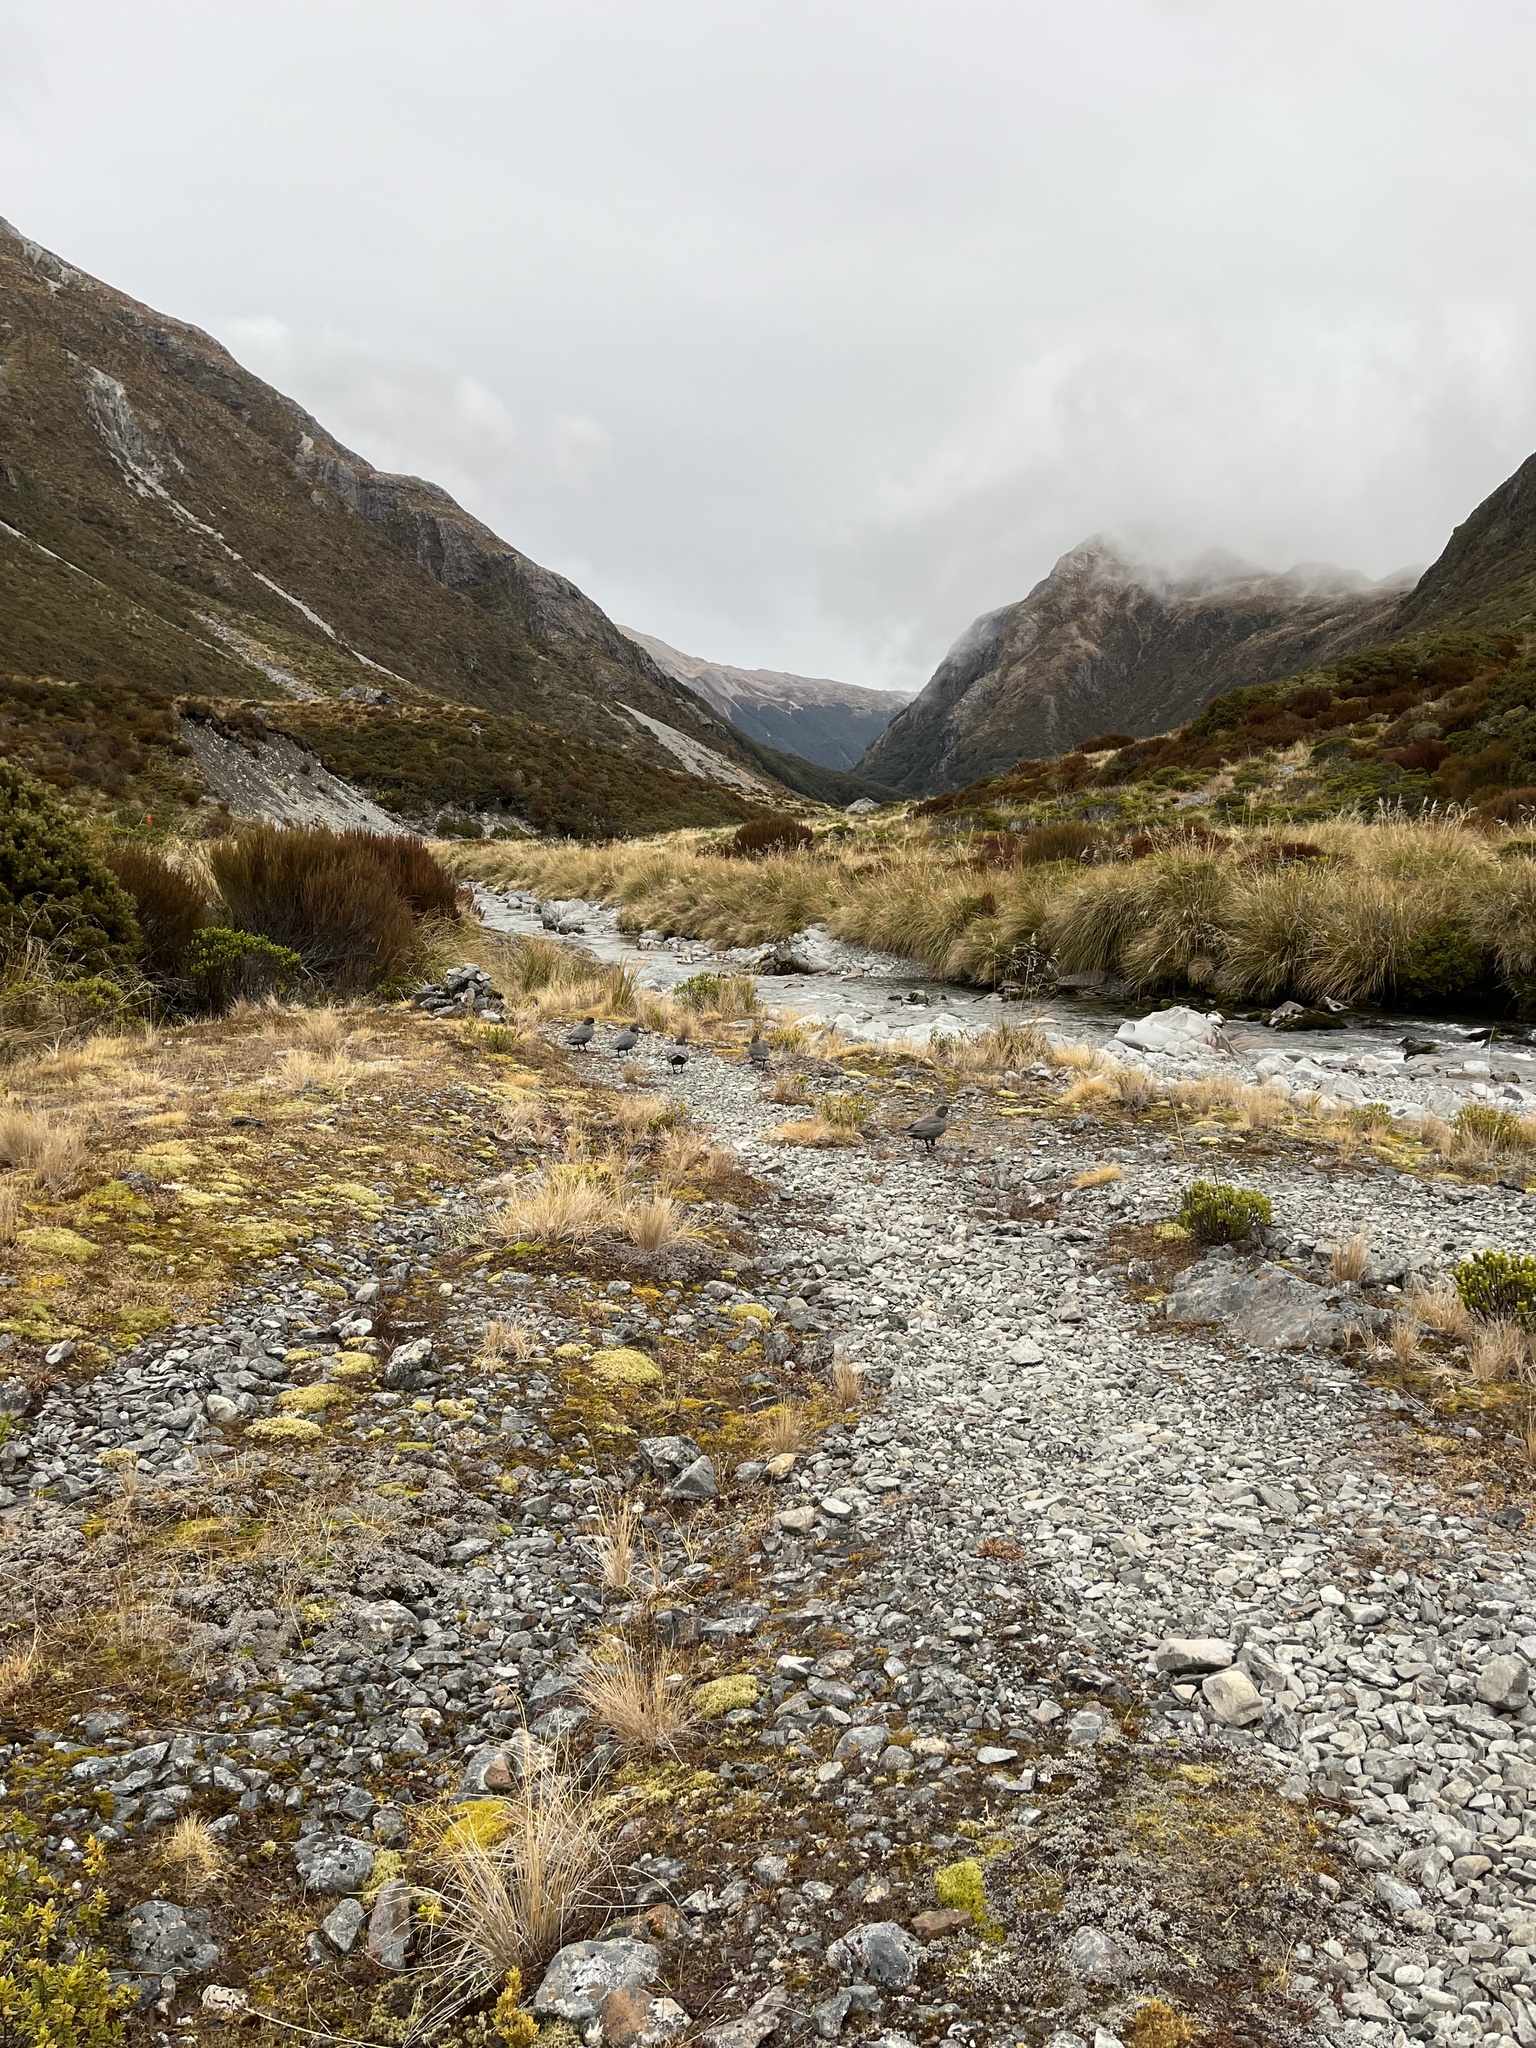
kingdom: Animalia
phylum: Chordata
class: Aves
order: Anseriformes
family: Anatidae
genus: Hymenolaimus
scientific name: Hymenolaimus malacorhynchos
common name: Blue duck
